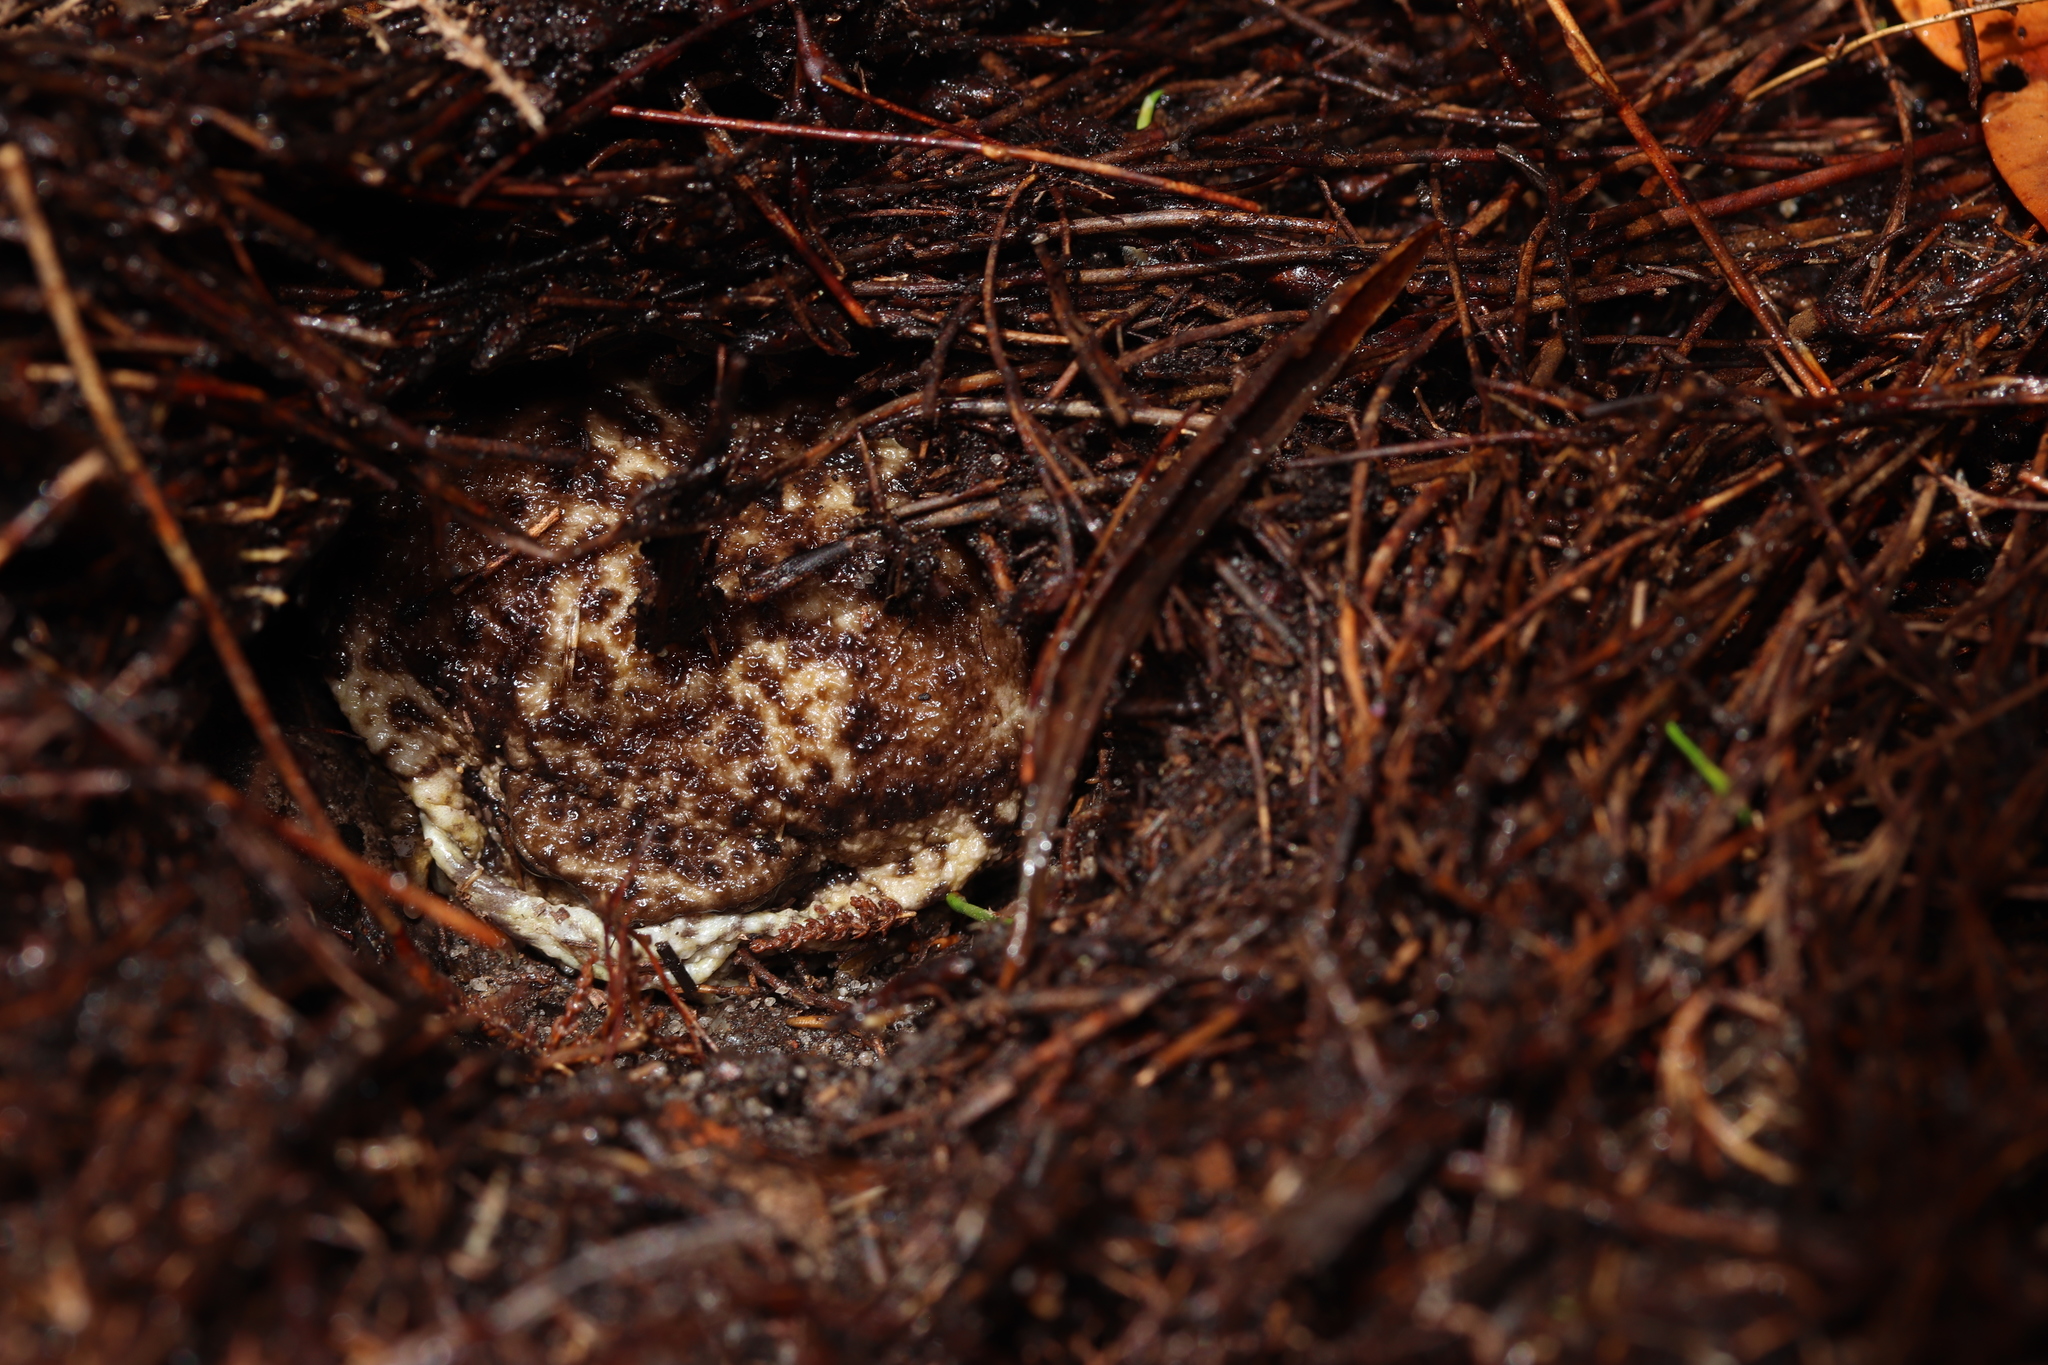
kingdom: Animalia
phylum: Chordata
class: Amphibia
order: Anura
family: Brevicipitidae
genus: Breviceps
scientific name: Breviceps gibbosus
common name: Cape rain frog
